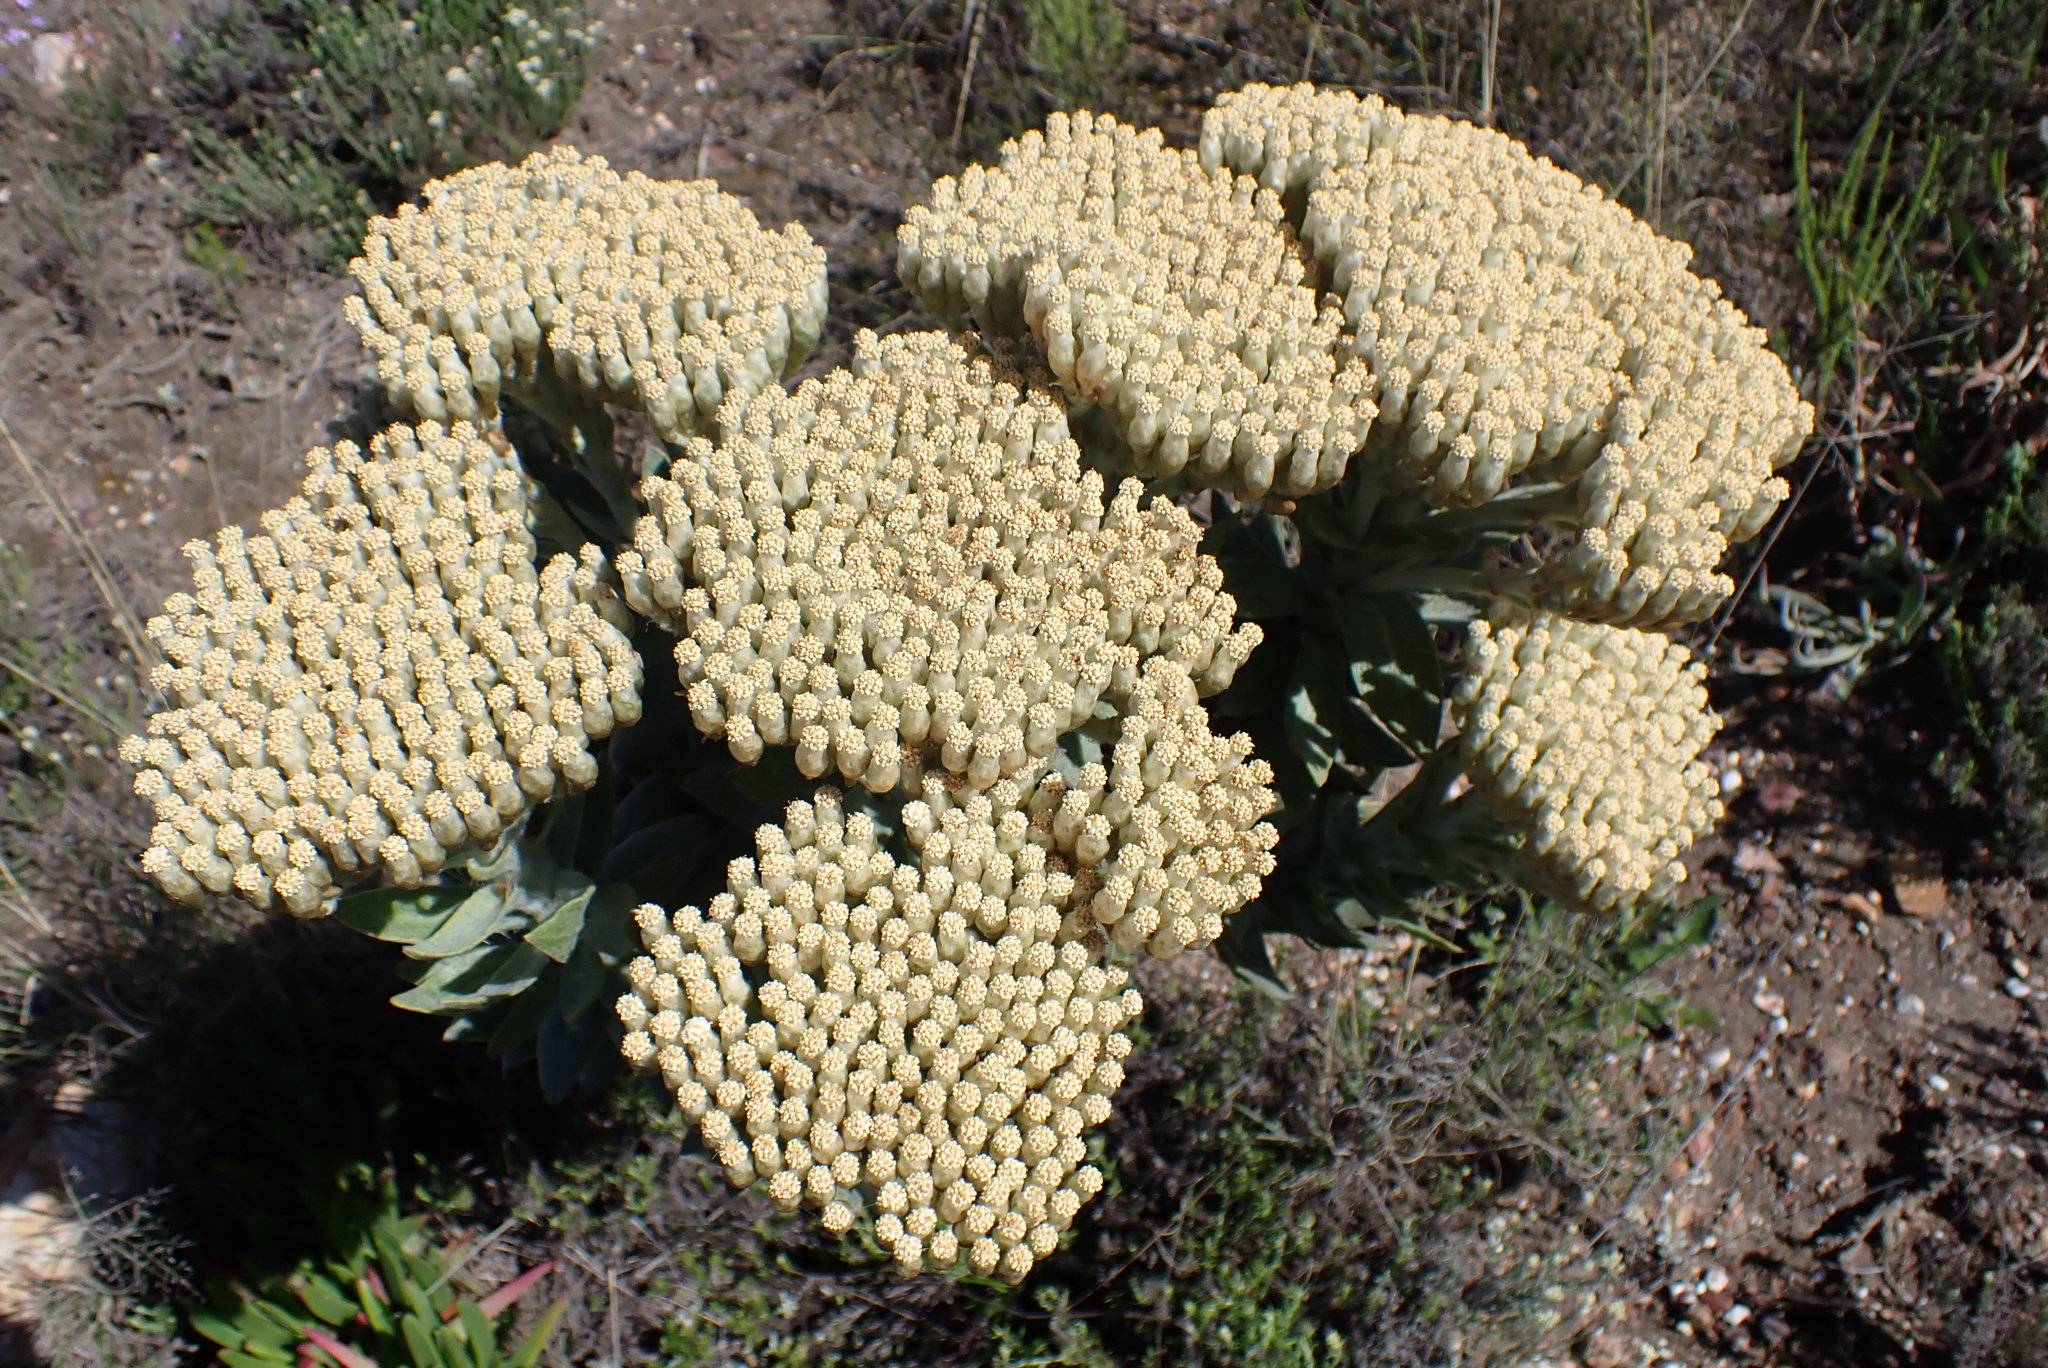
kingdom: Plantae
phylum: Tracheophyta
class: Magnoliopsida
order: Asterales
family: Asteraceae
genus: Syncarpha
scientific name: Syncarpha milleflora
